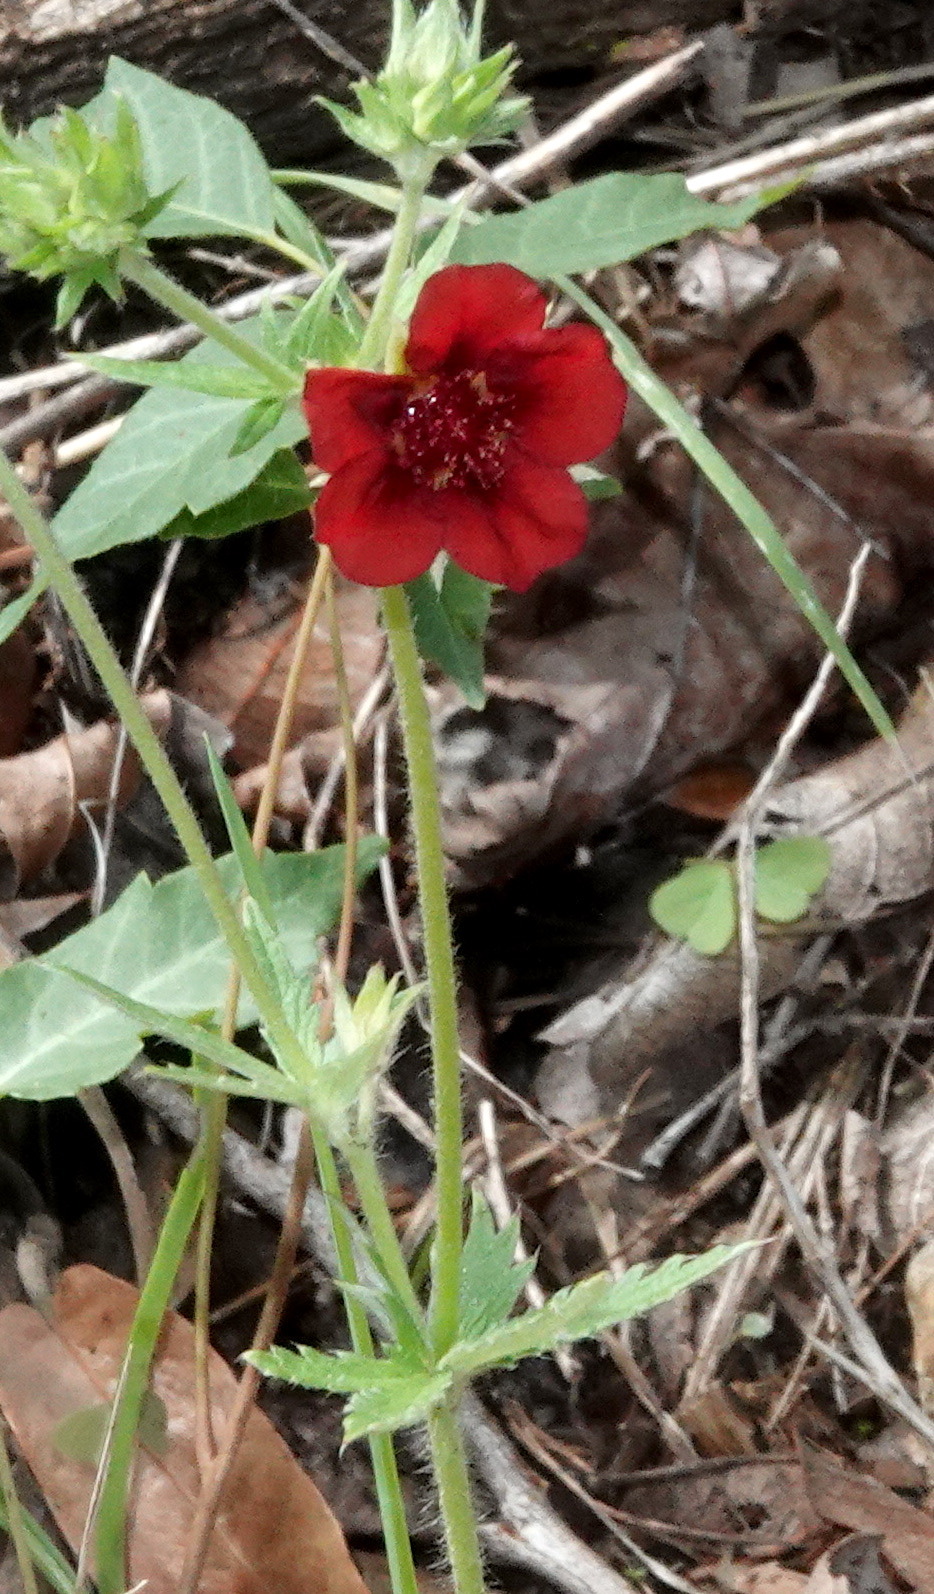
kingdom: Plantae
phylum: Tracheophyta
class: Magnoliopsida
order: Rosales
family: Rosaceae
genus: Potentilla
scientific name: Potentilla thurberi
